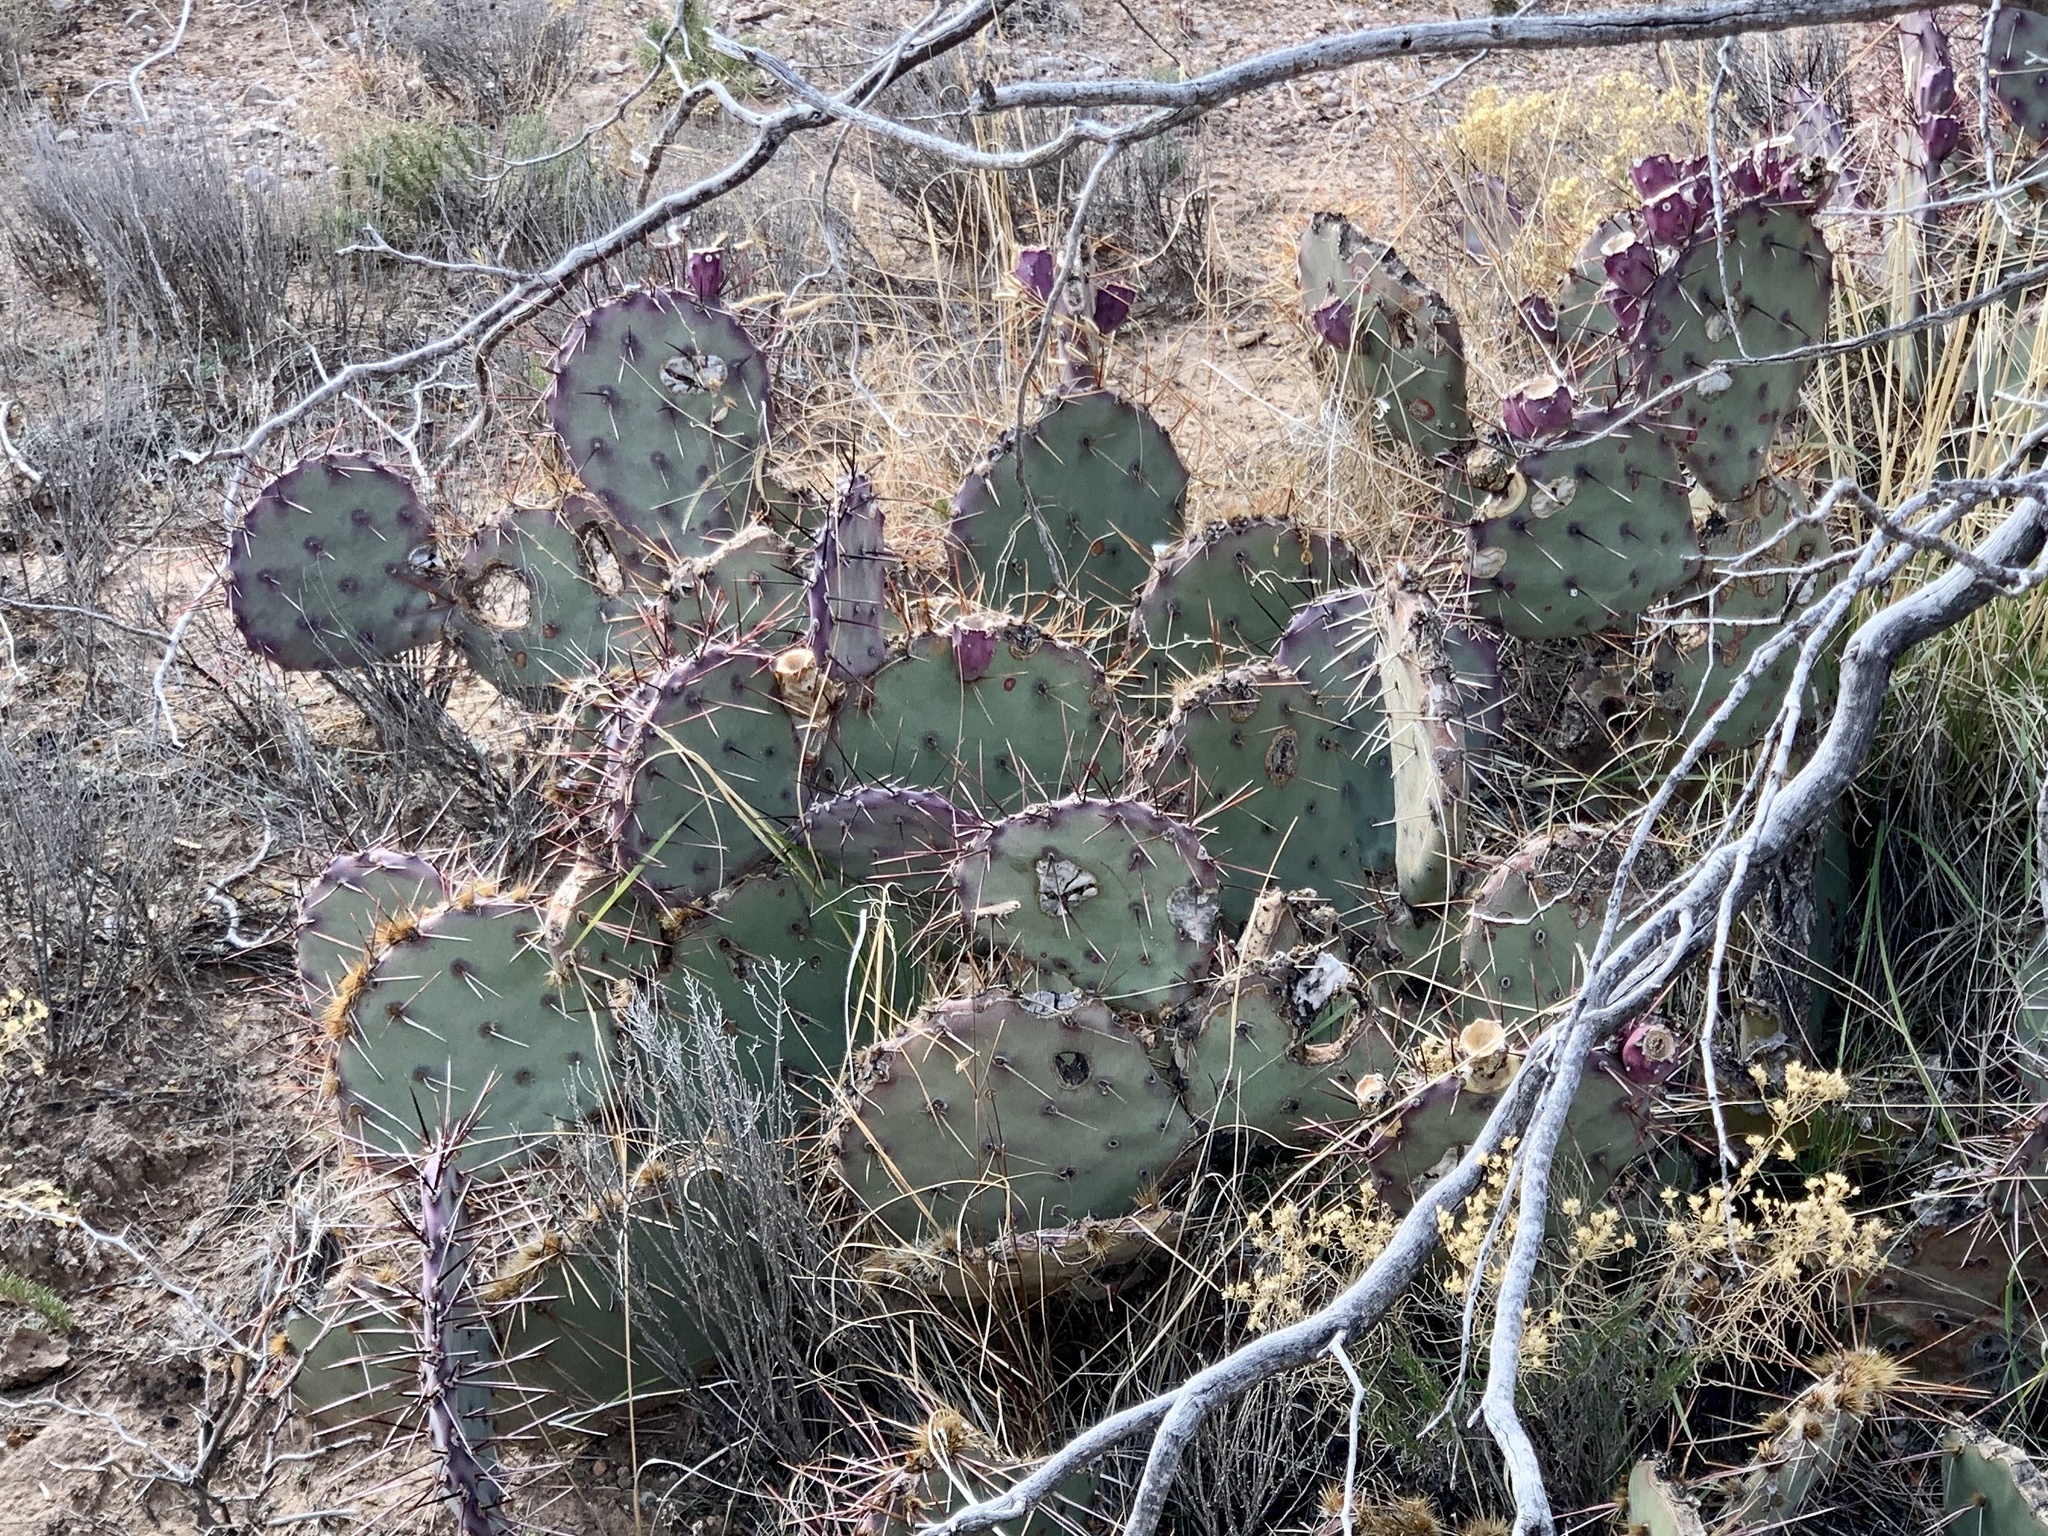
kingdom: Plantae
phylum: Tracheophyta
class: Magnoliopsida
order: Caryophyllales
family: Cactaceae
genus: Opuntia
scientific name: Opuntia macrocentra
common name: Purple prickly-pear
